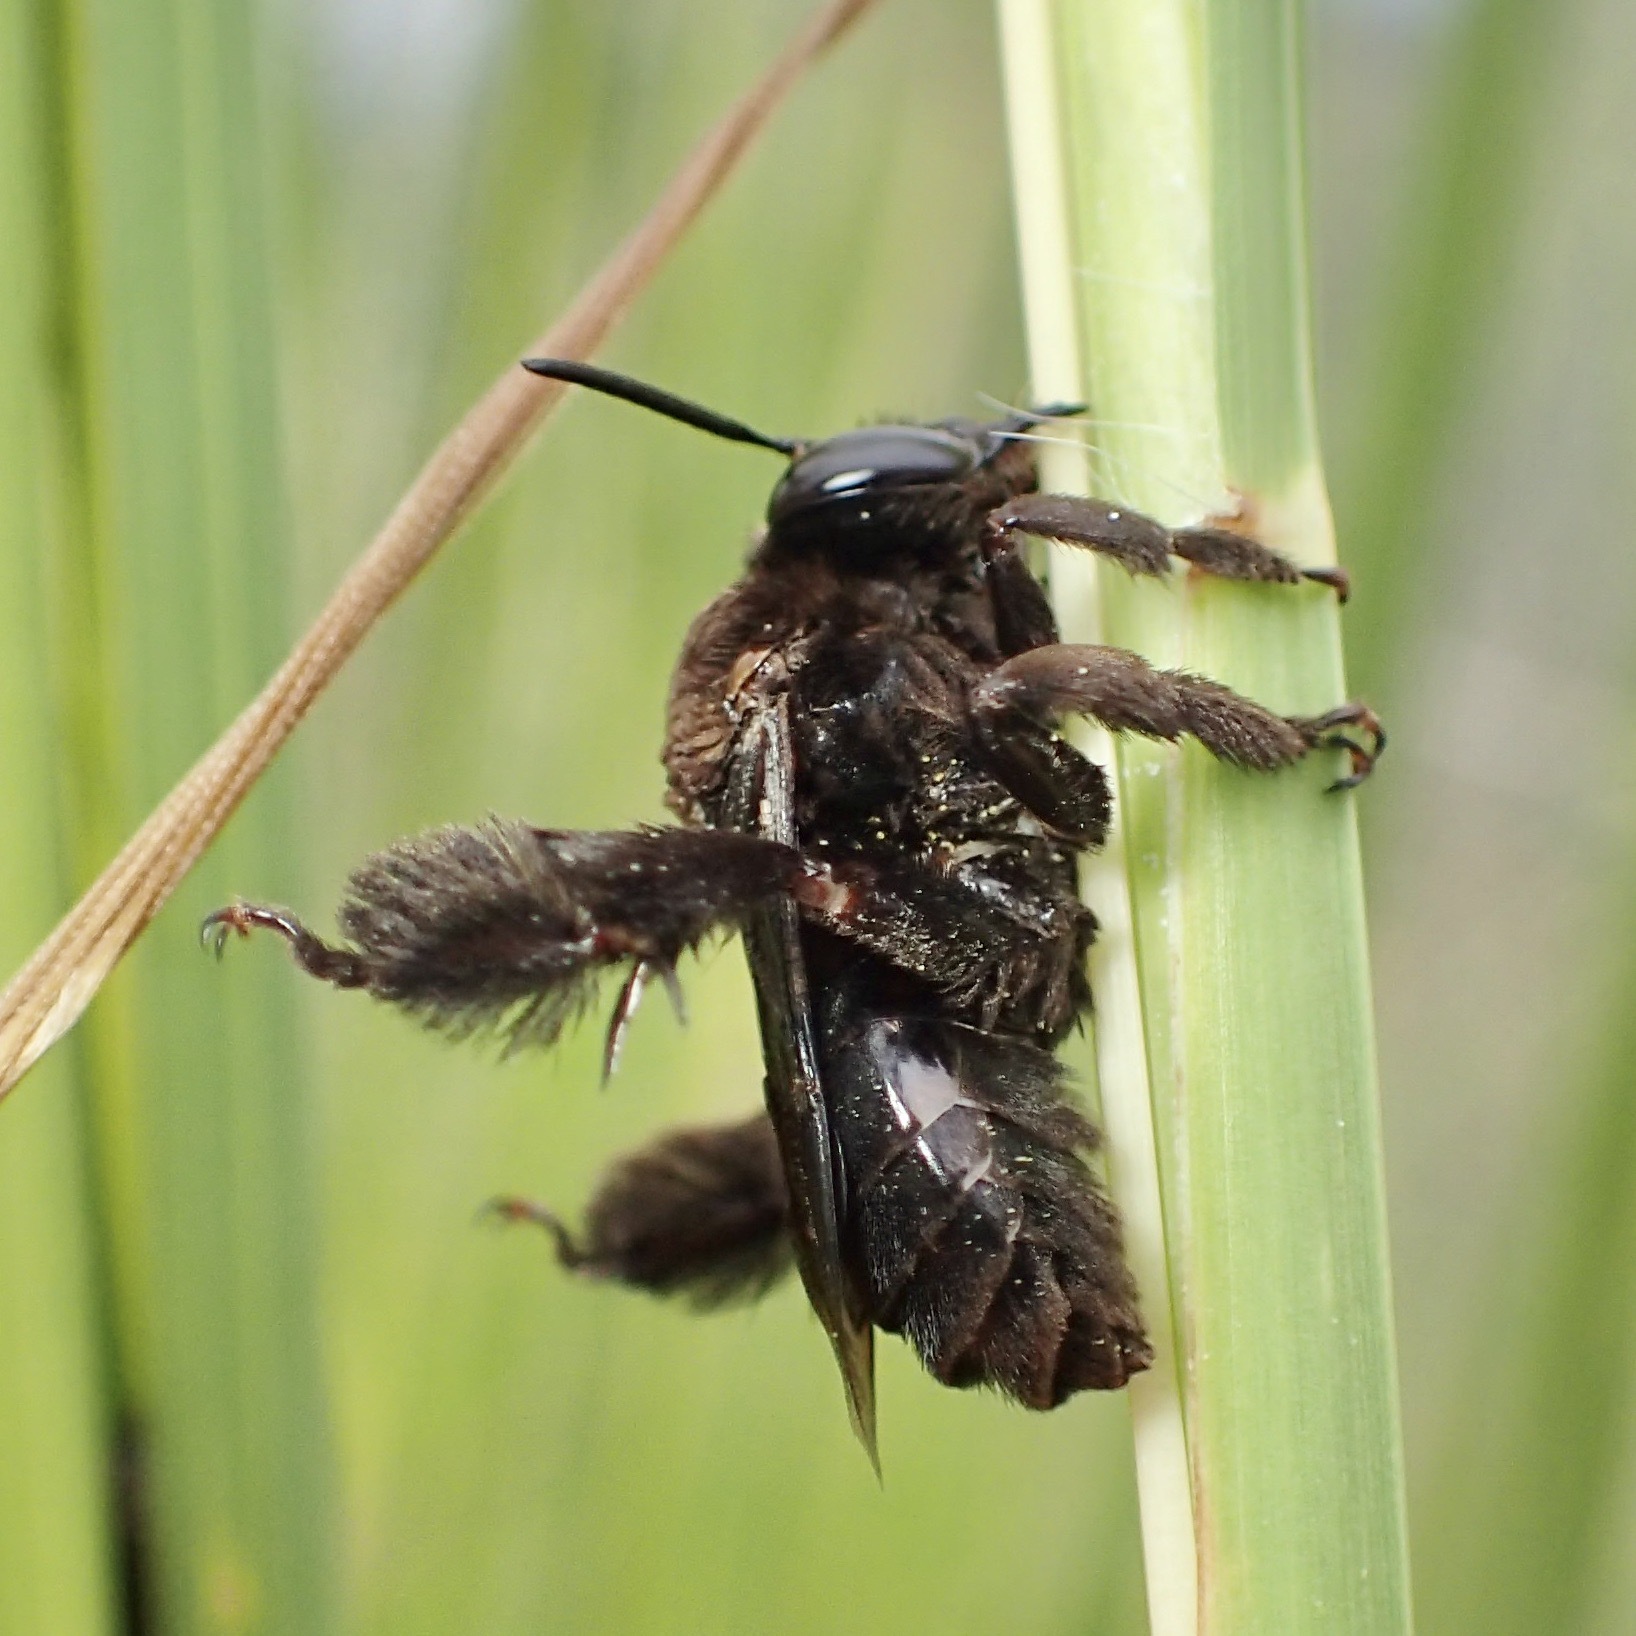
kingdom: Animalia
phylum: Arthropoda
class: Insecta
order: Hymenoptera
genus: Paracentris
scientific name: Paracentris
